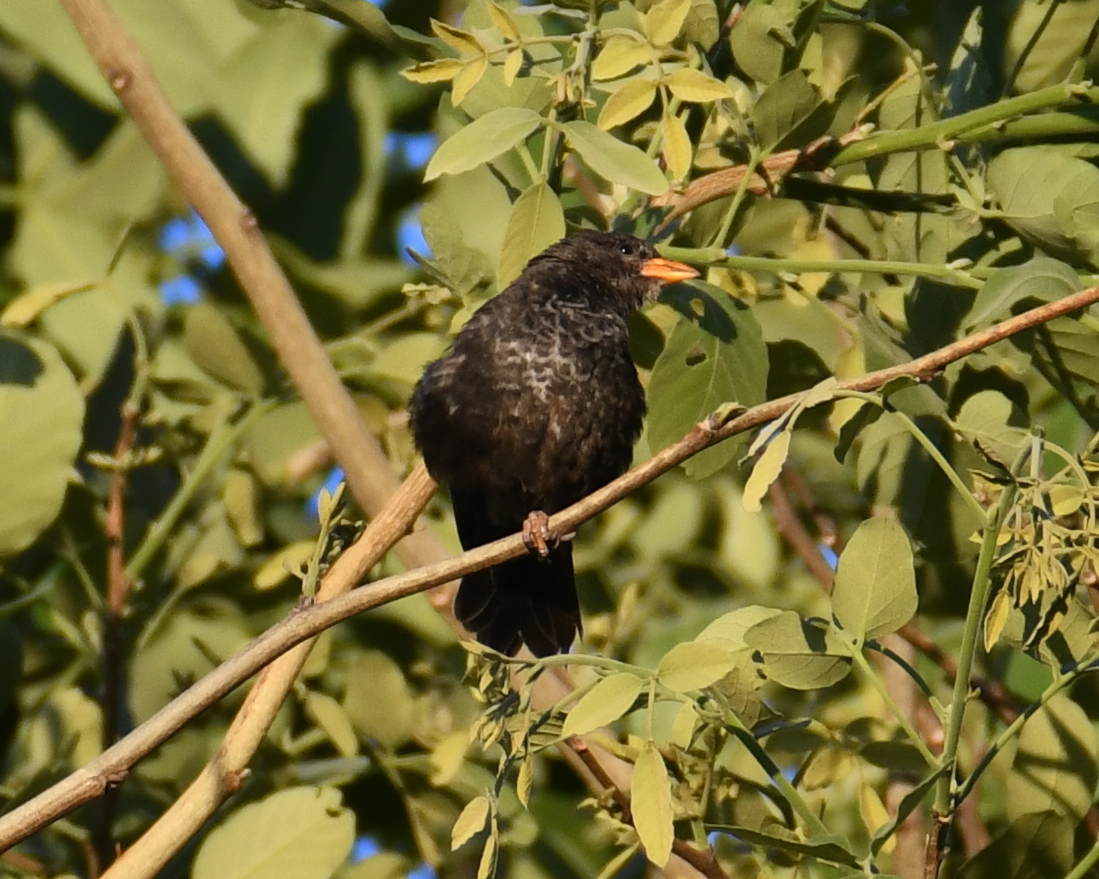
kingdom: Animalia
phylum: Chordata
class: Aves
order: Passeriformes
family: Ploceidae
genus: Bubalornis
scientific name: Bubalornis niger
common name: Red-billed buffalo weaver
